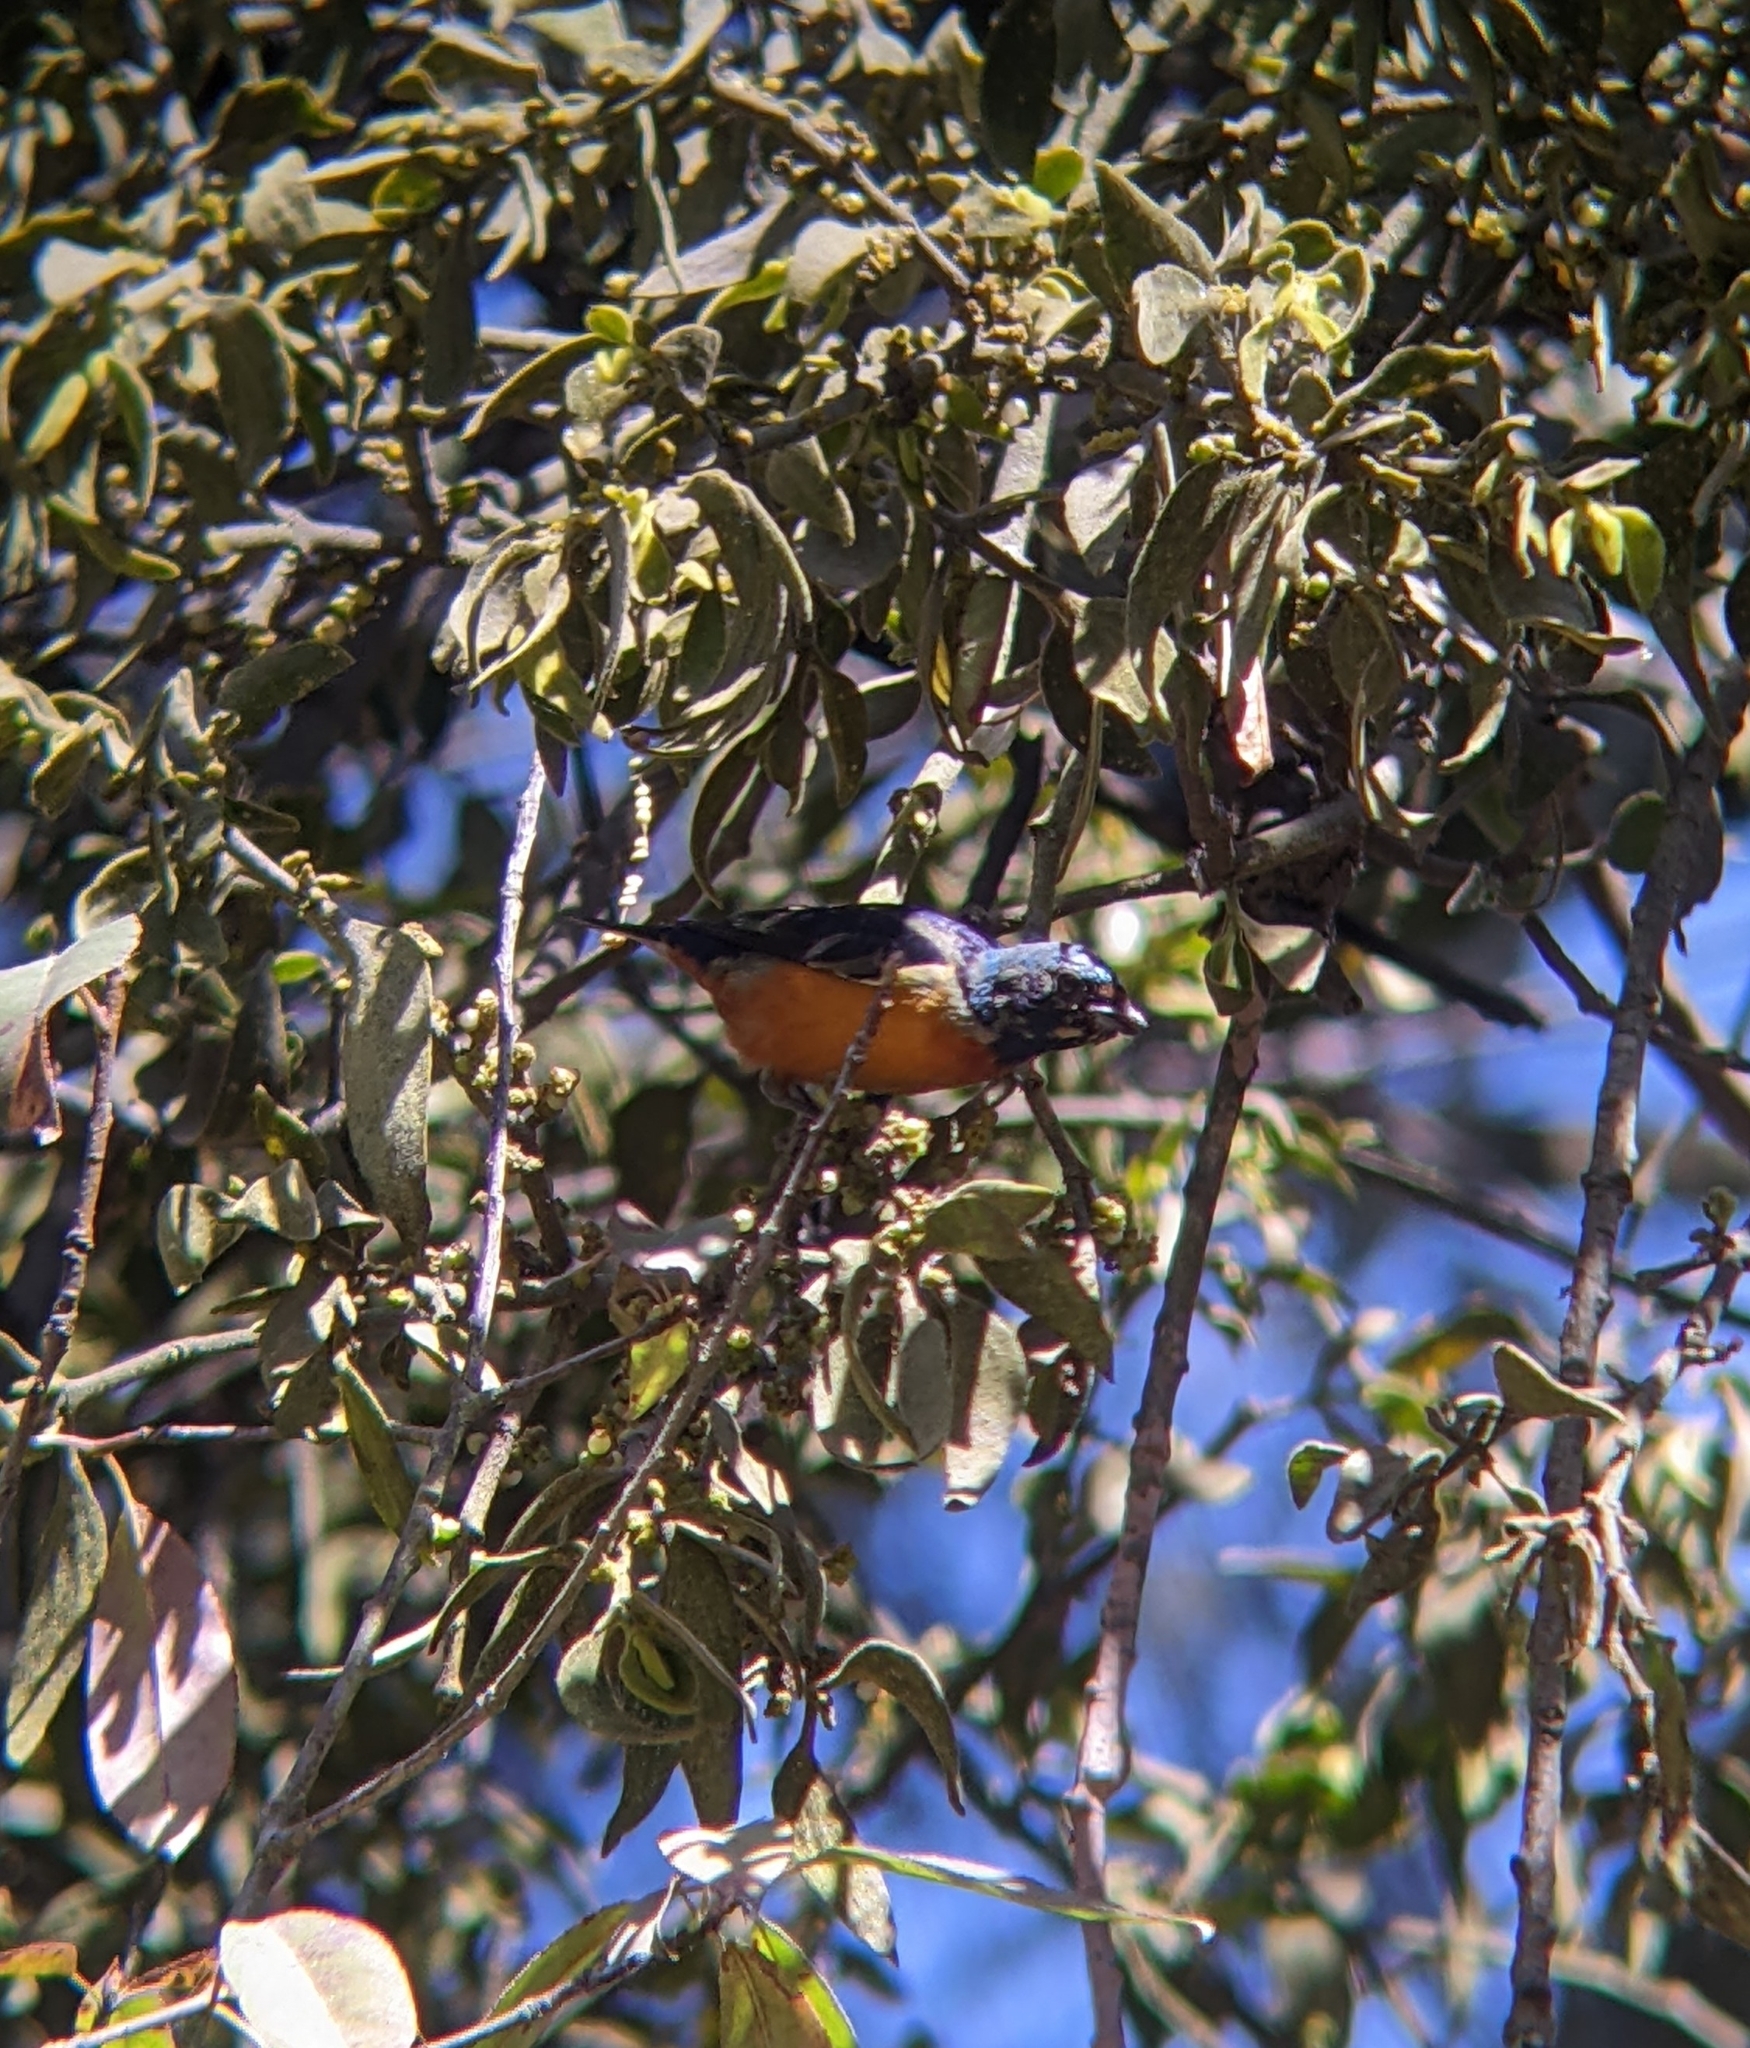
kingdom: Animalia
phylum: Chordata
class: Aves
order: Passeriformes
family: Fringillidae
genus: Euphonia
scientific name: Euphonia elegantissima
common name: Elegant euphonia
